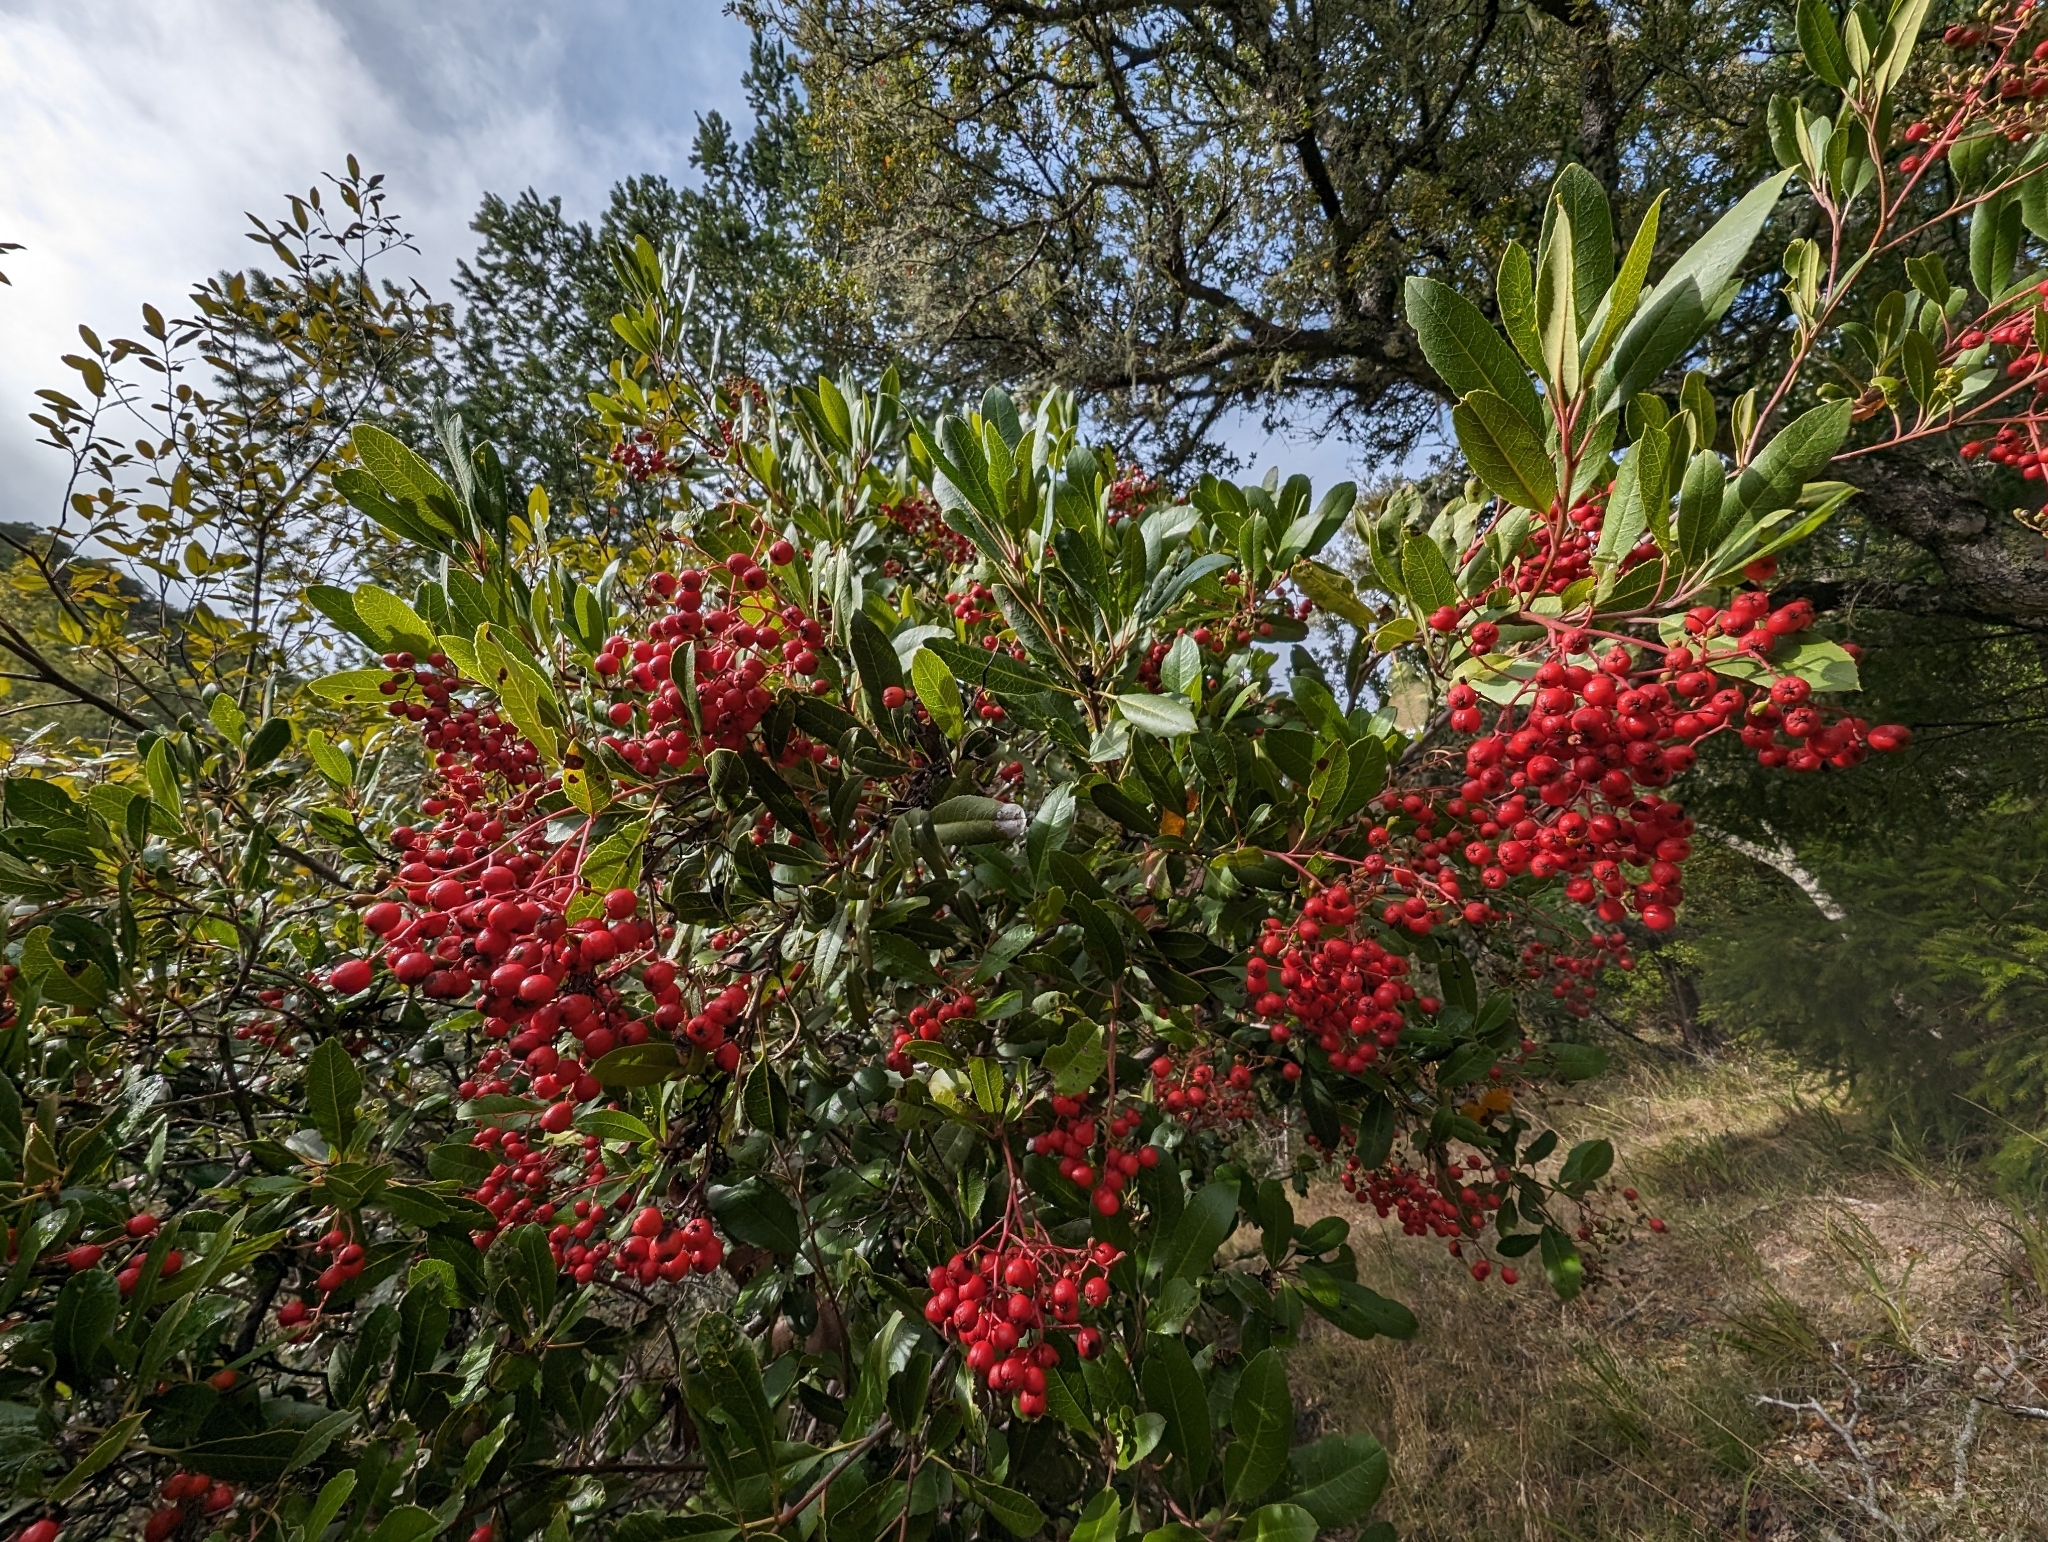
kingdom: Plantae
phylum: Tracheophyta
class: Magnoliopsida
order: Rosales
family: Rosaceae
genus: Heteromeles
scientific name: Heteromeles arbutifolia
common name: California-holly
